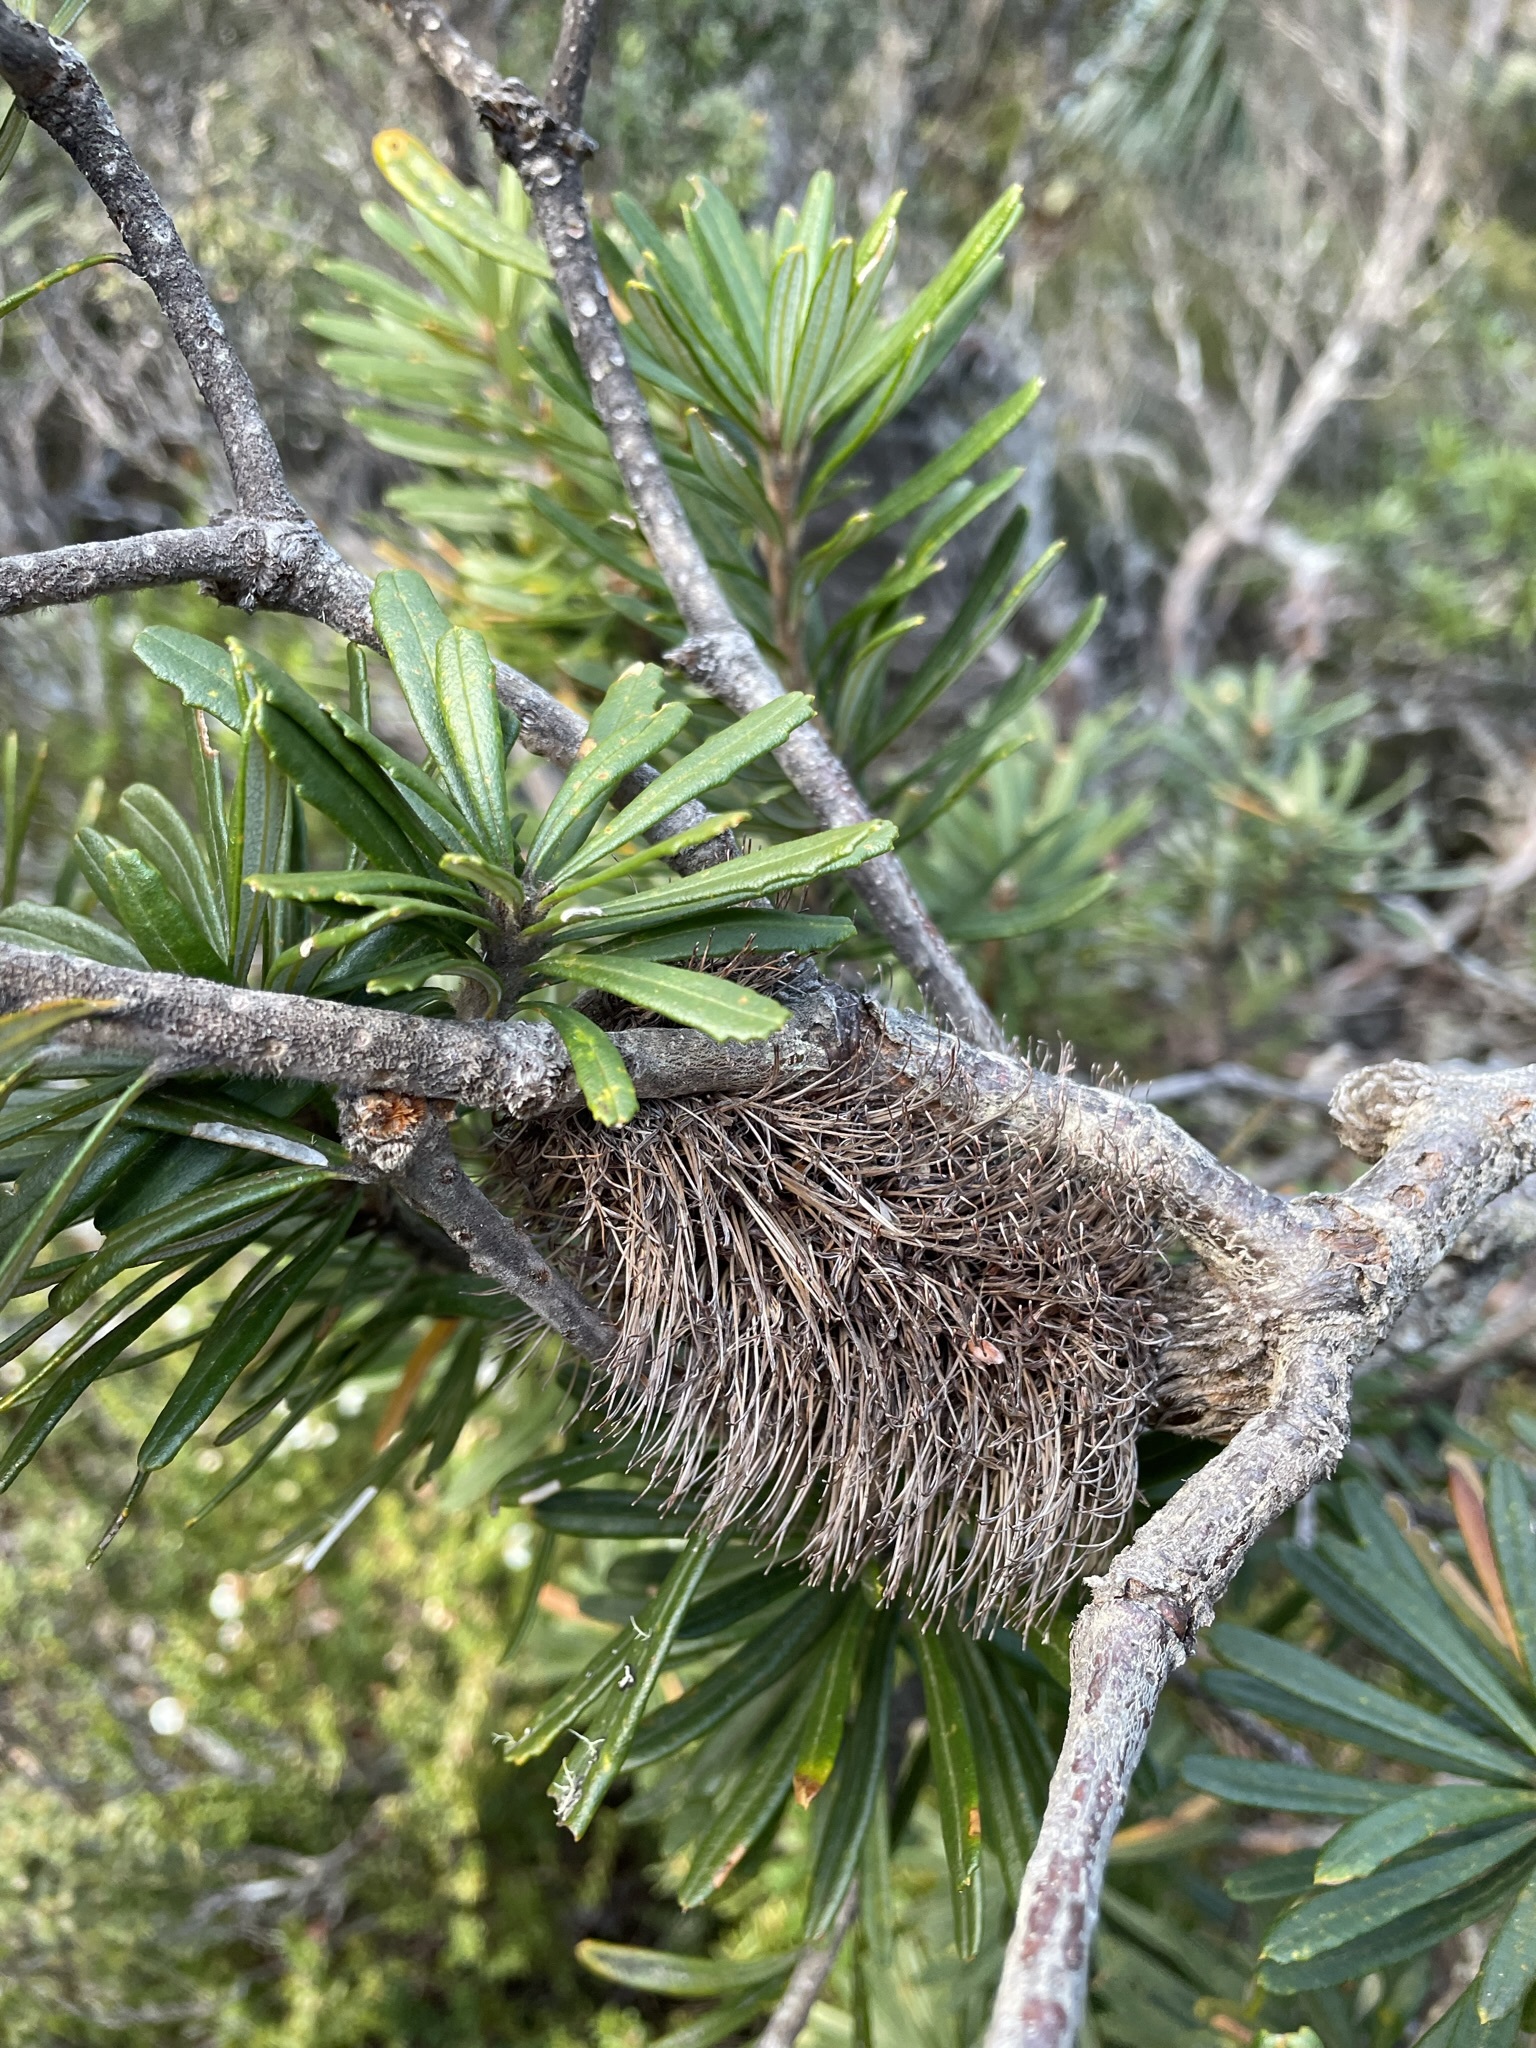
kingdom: Plantae
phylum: Tracheophyta
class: Magnoliopsida
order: Proteales
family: Proteaceae
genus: Banksia
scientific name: Banksia marginata
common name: Silver banksia
